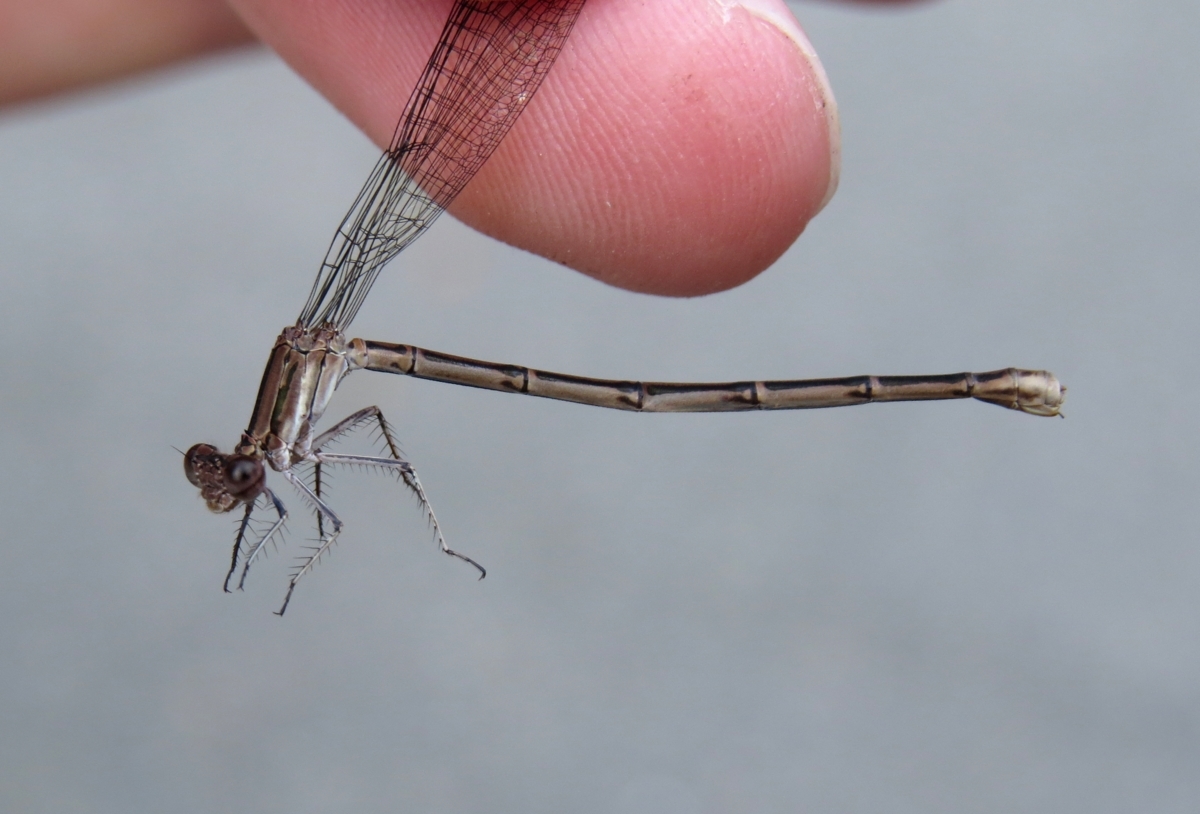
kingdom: Animalia
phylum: Arthropoda
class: Insecta
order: Odonata
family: Coenagrionidae
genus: Argia
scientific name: Argia fumipennis
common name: Variable dancer
